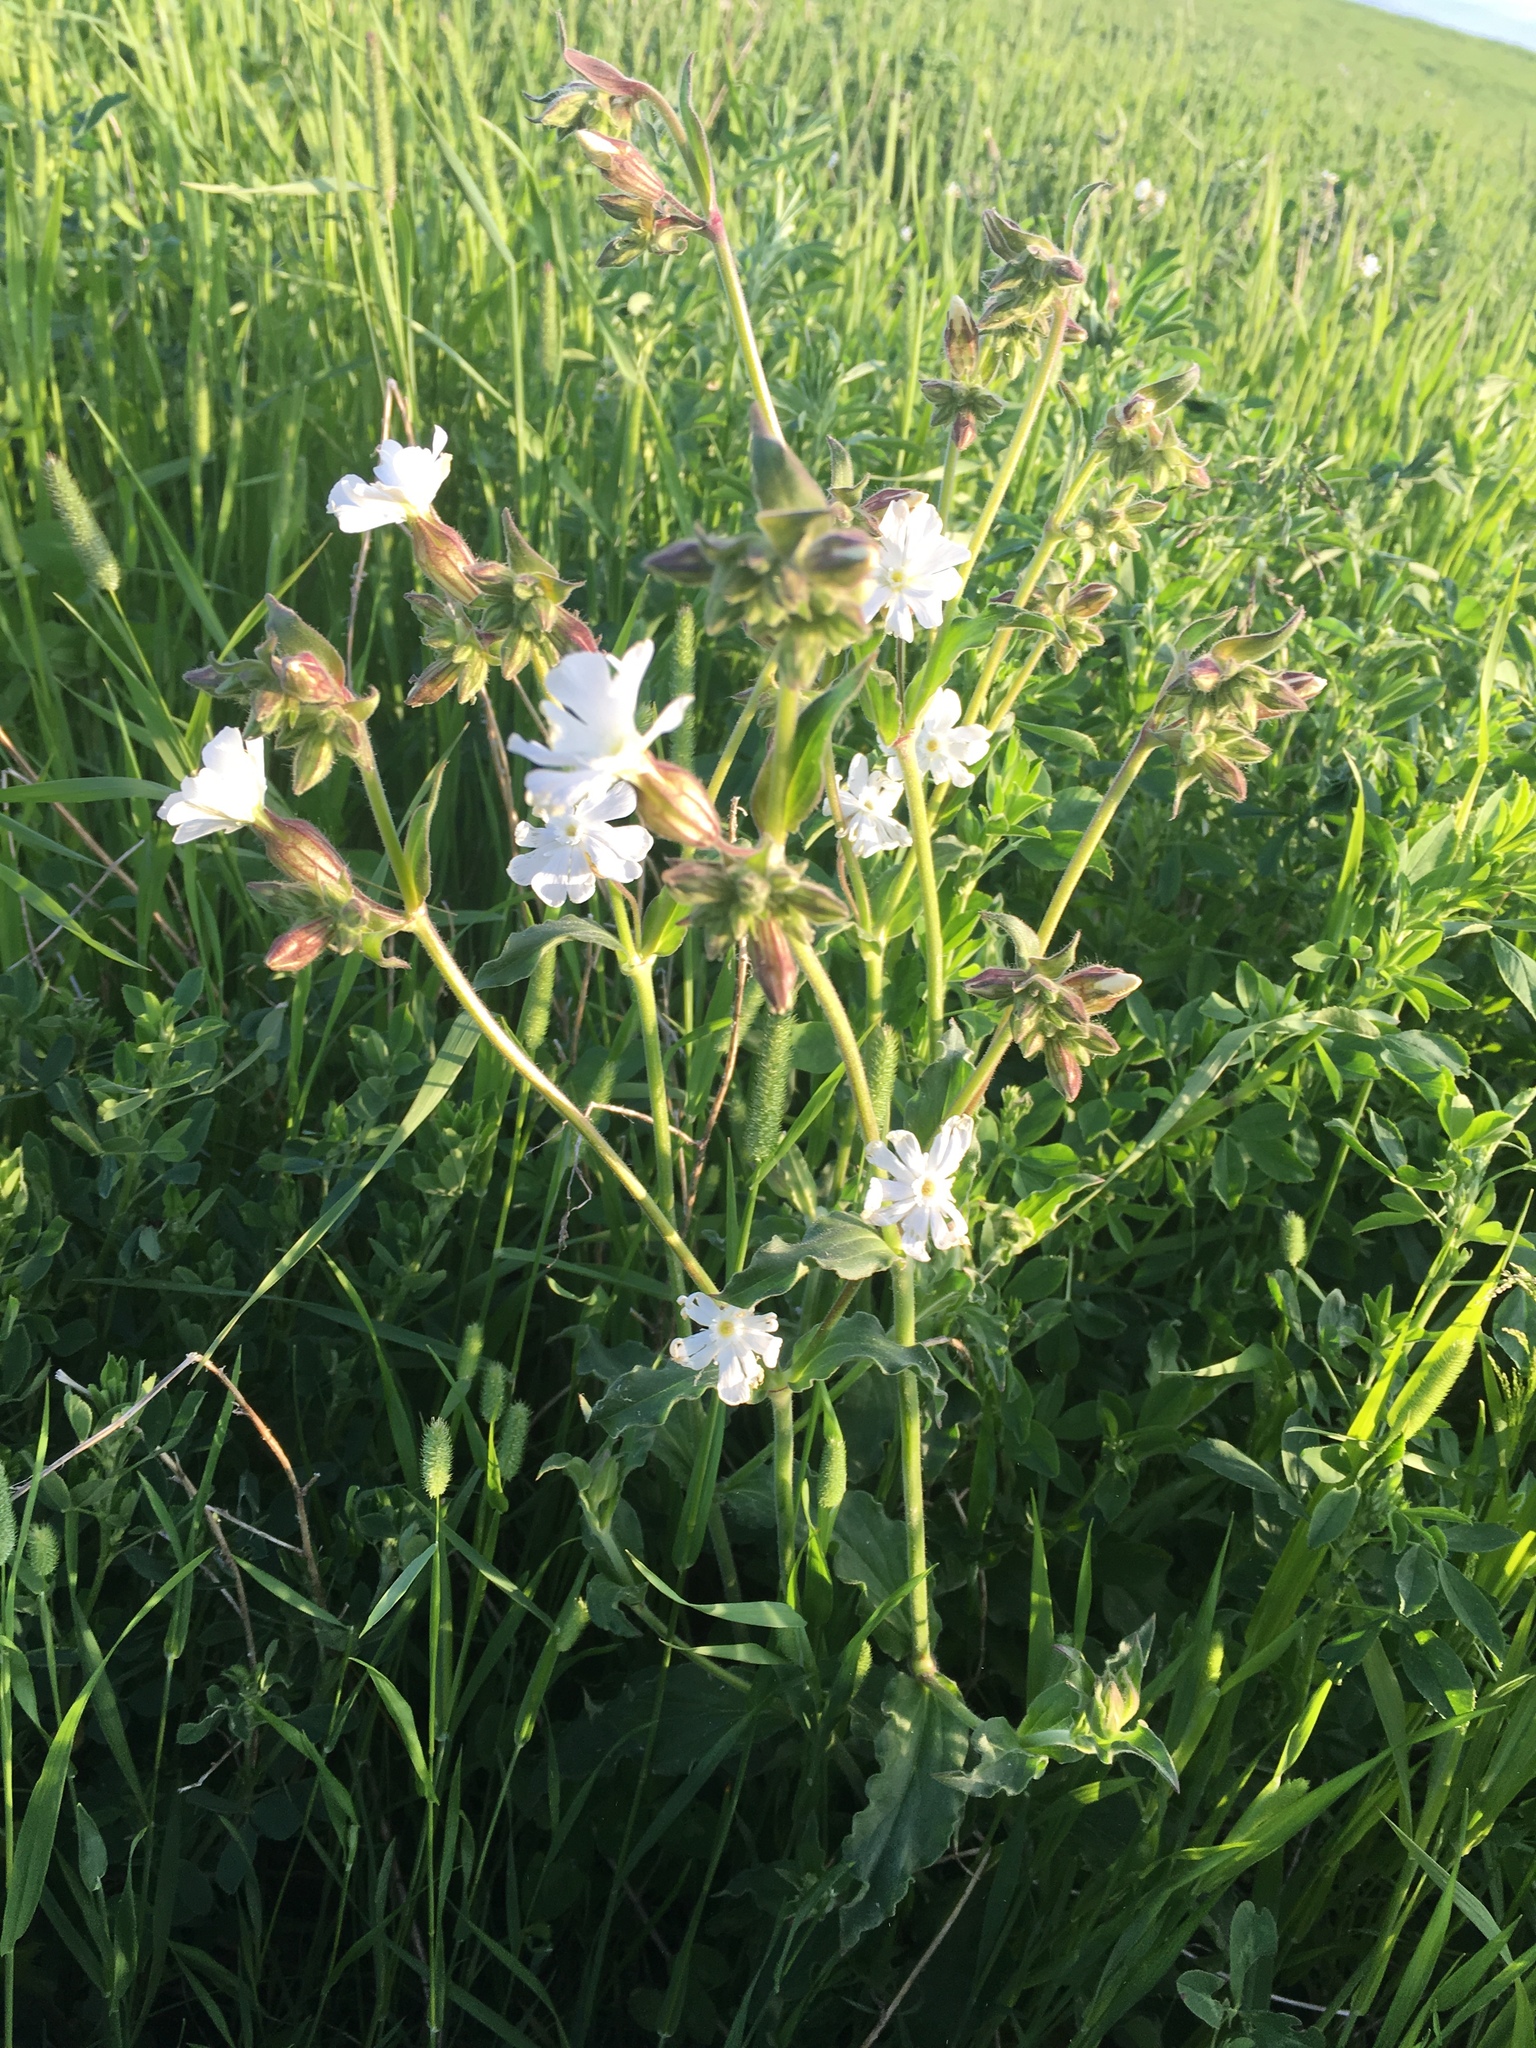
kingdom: Plantae
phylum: Tracheophyta
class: Magnoliopsida
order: Caryophyllales
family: Caryophyllaceae
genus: Silene
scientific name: Silene latifolia
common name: White campion
